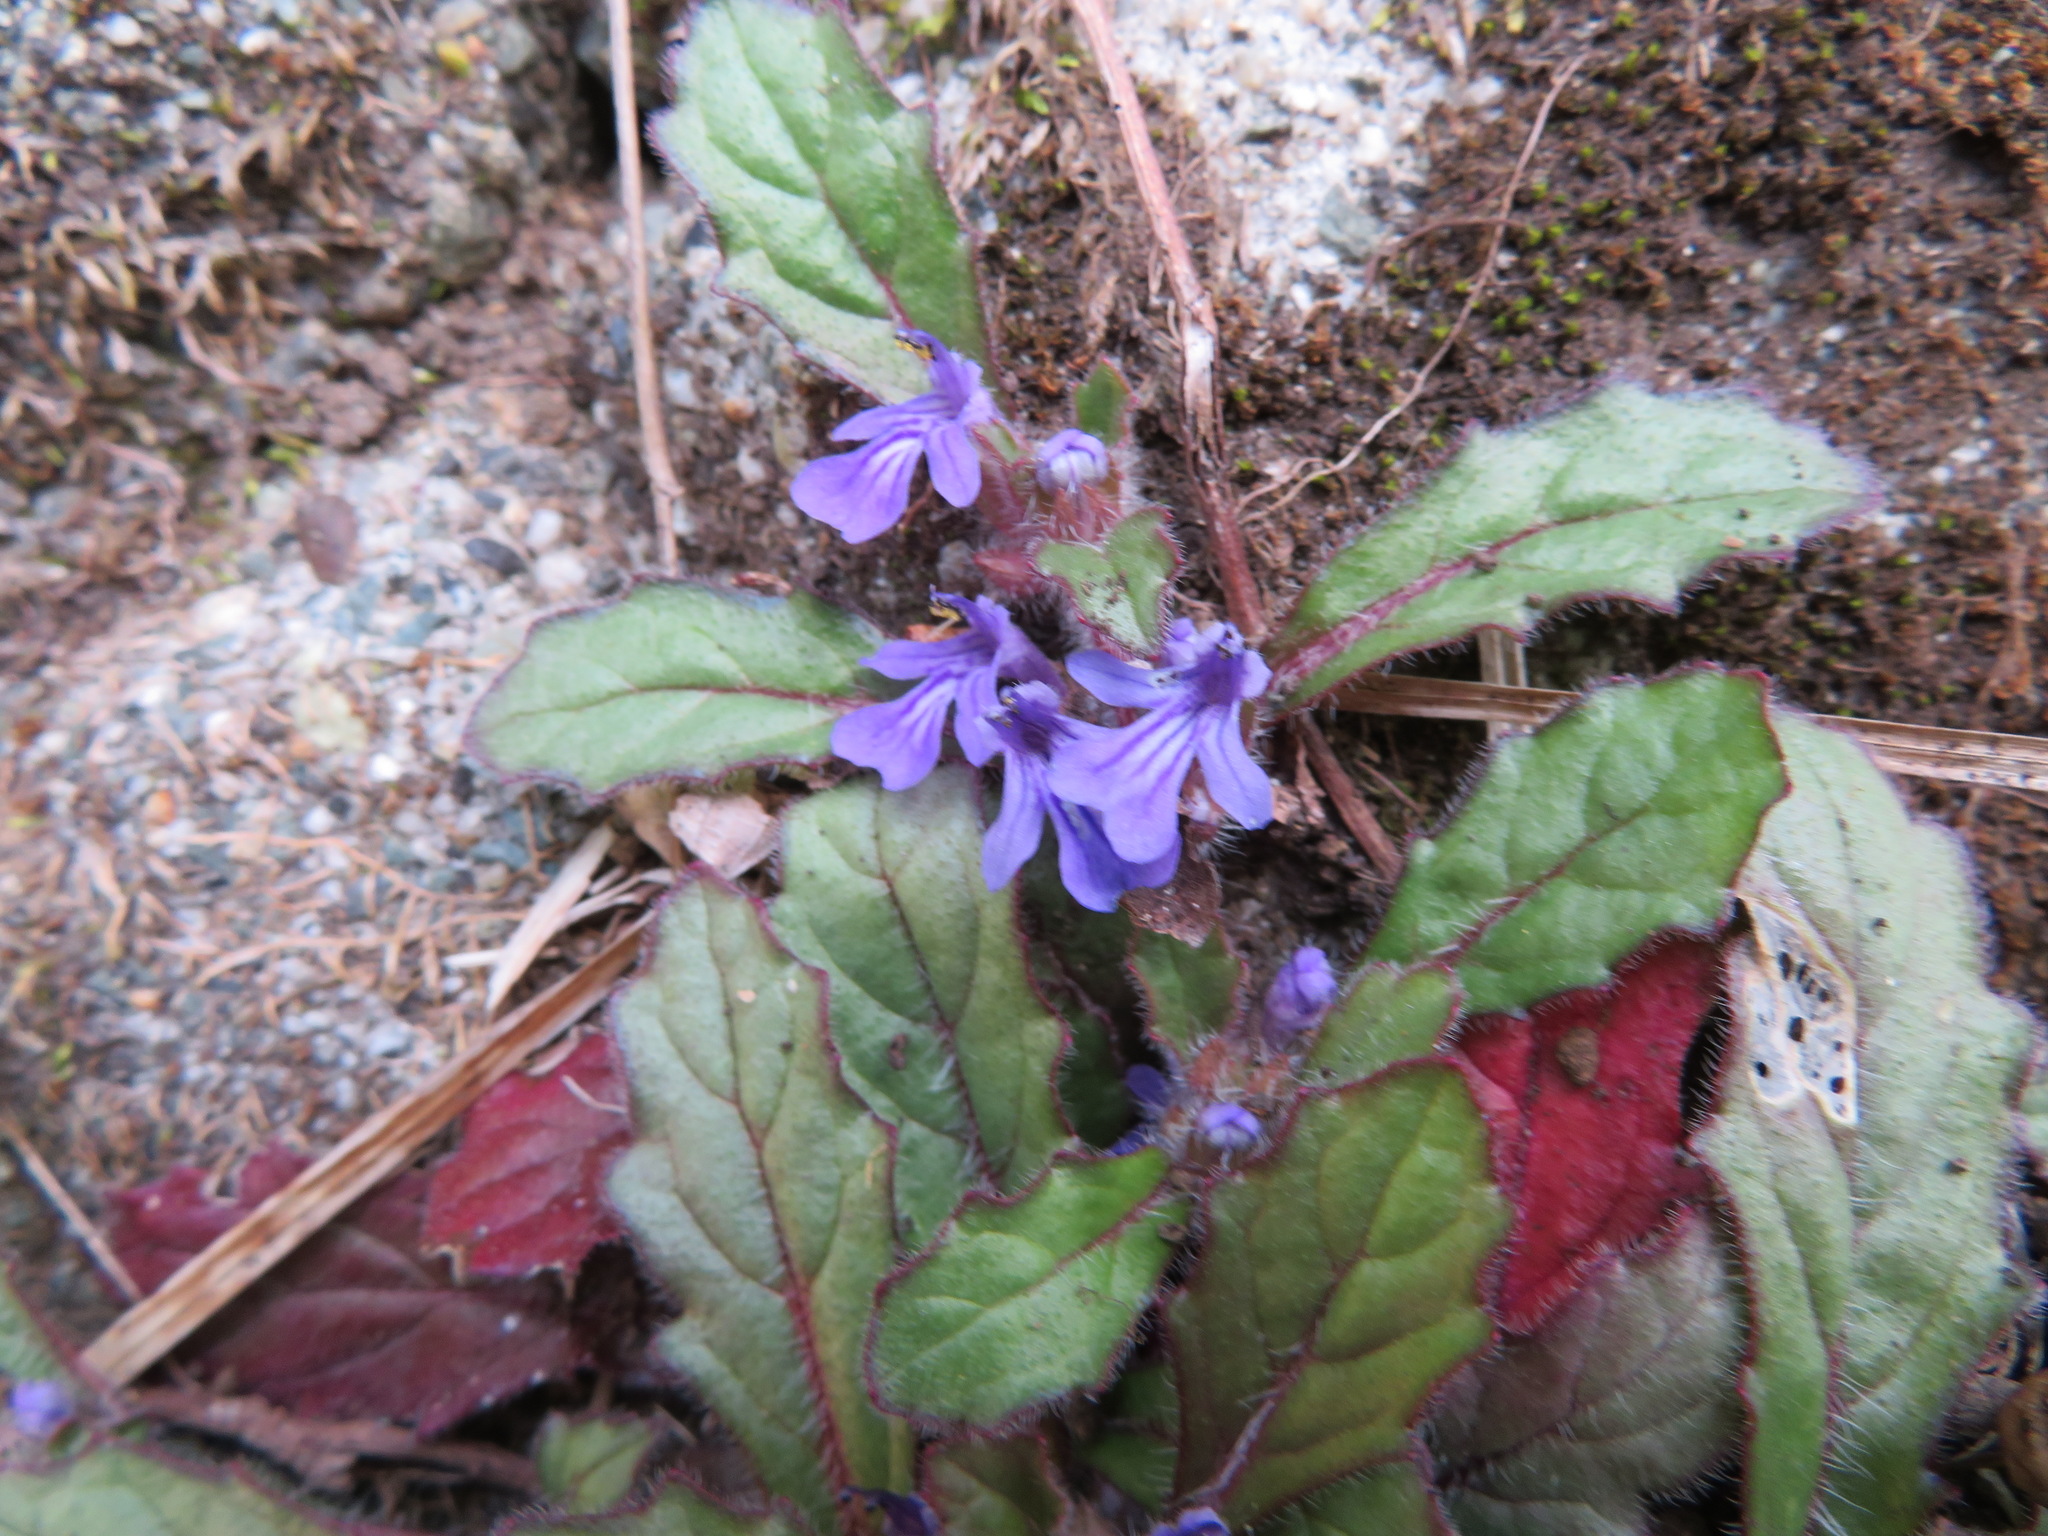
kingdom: Plantae
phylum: Tracheophyta
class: Magnoliopsida
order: Lamiales
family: Lamiaceae
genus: Ajuga
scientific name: Ajuga decumbens
